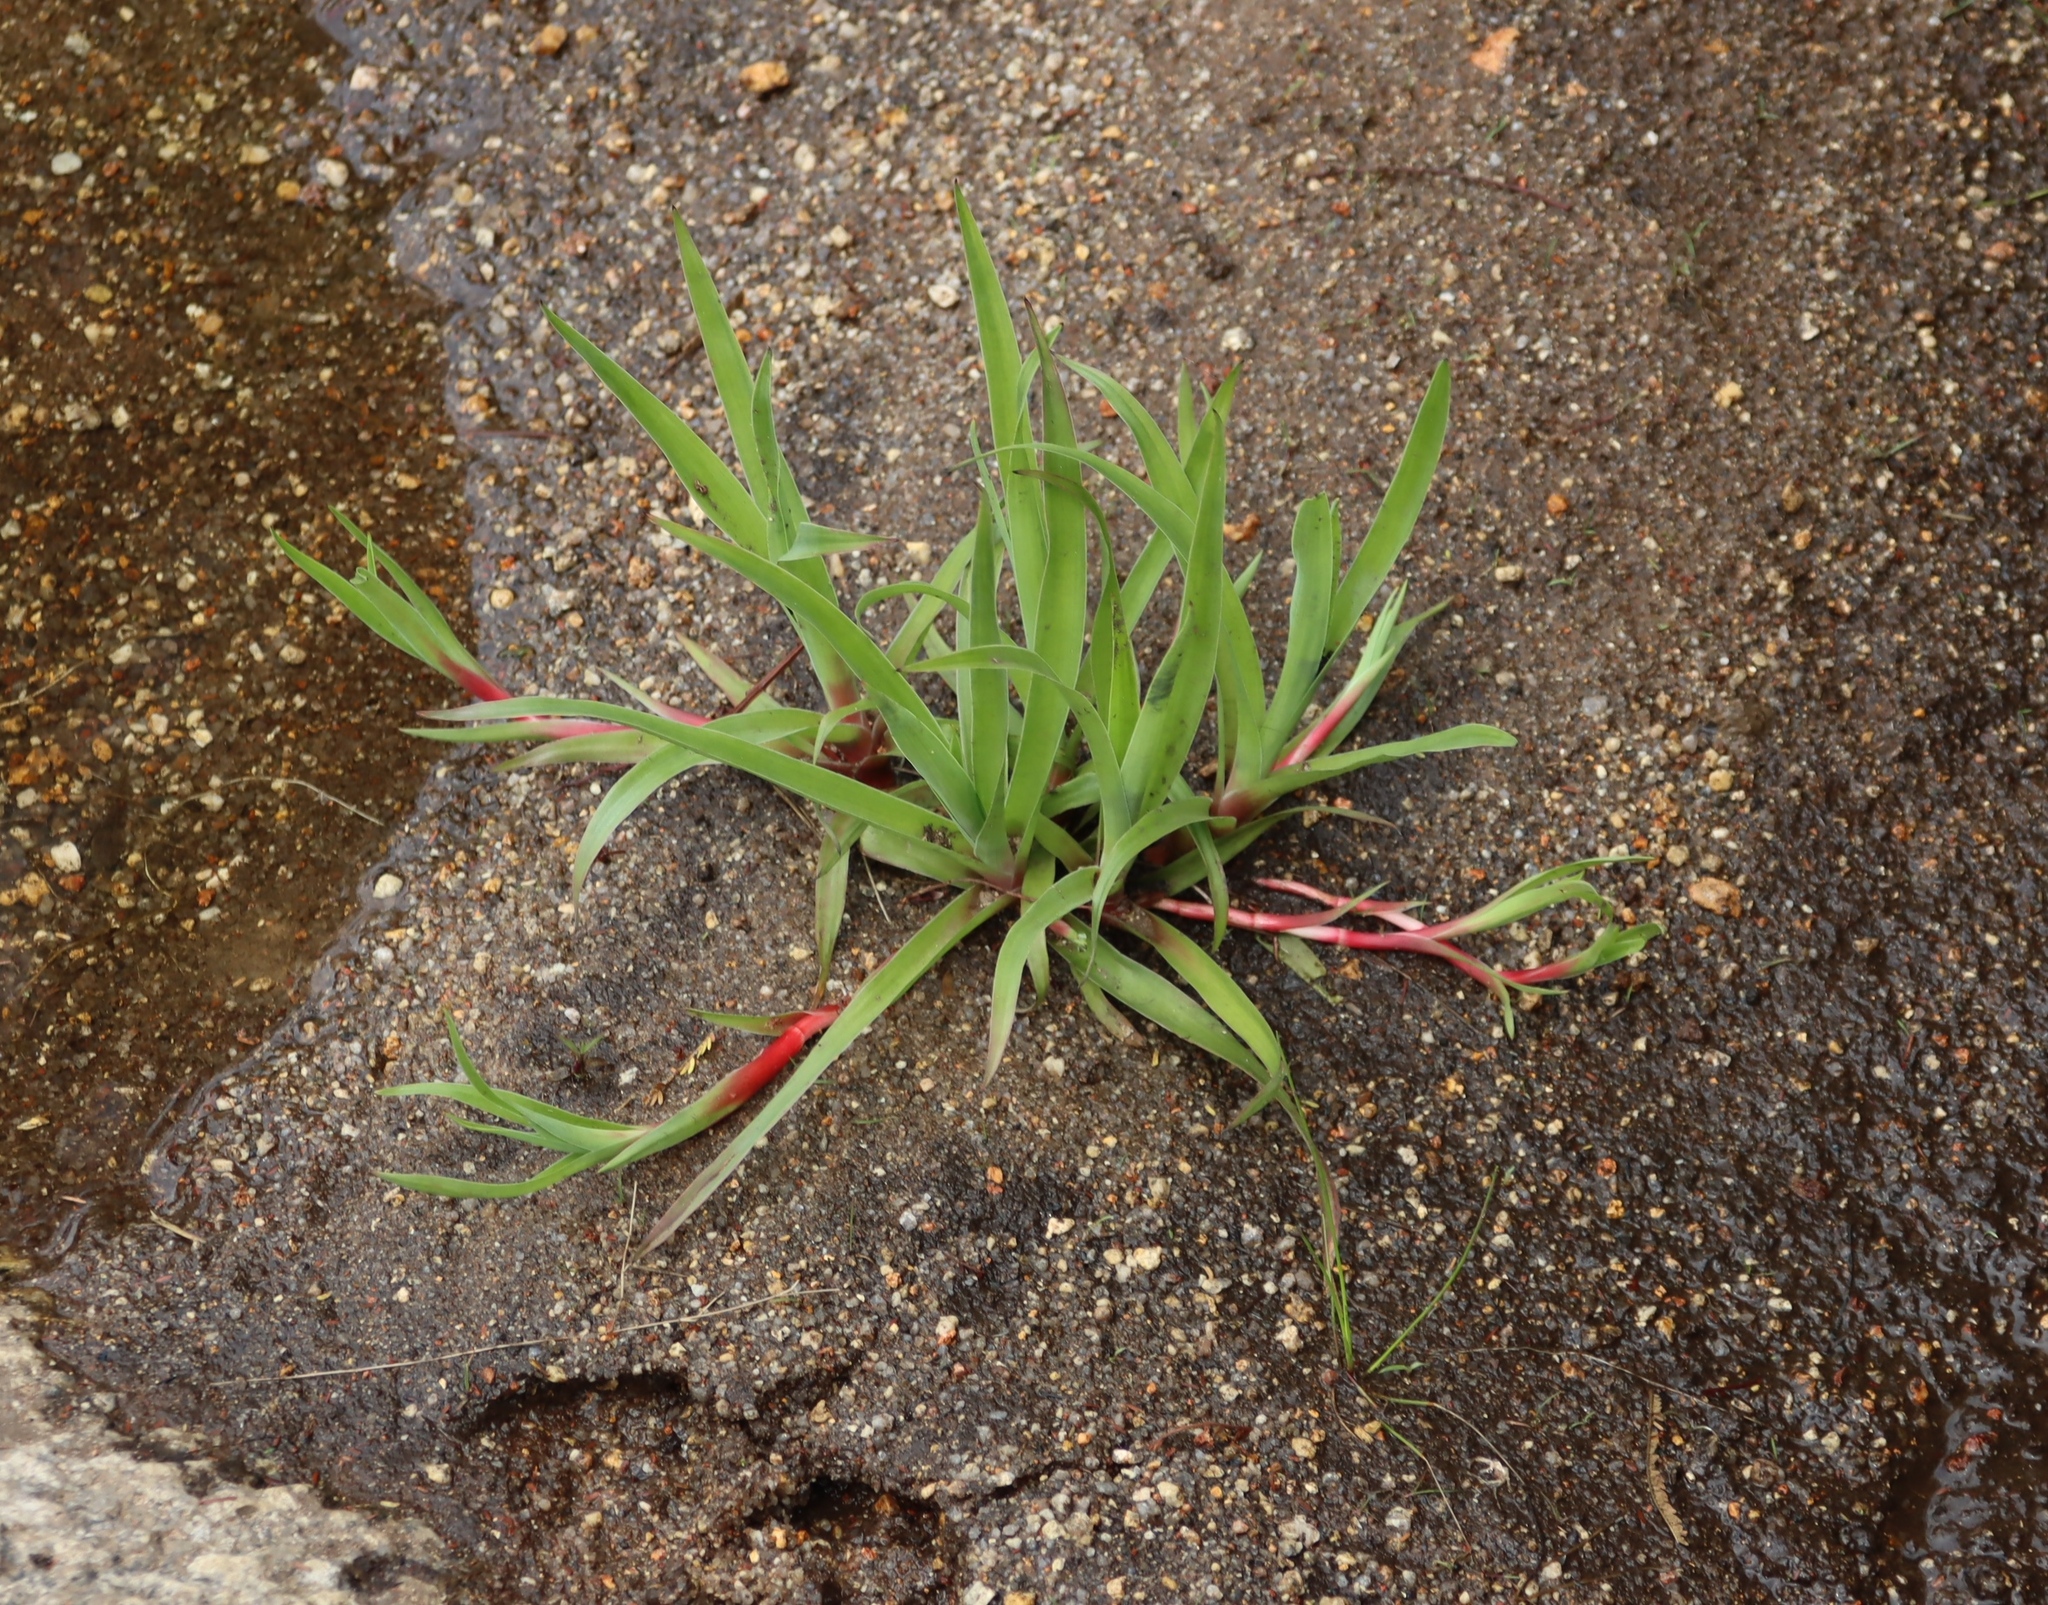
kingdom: Plantae
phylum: Tracheophyta
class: Liliopsida
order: Poales
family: Juncaceae
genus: Juncus
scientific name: Juncus lomatophyllus
